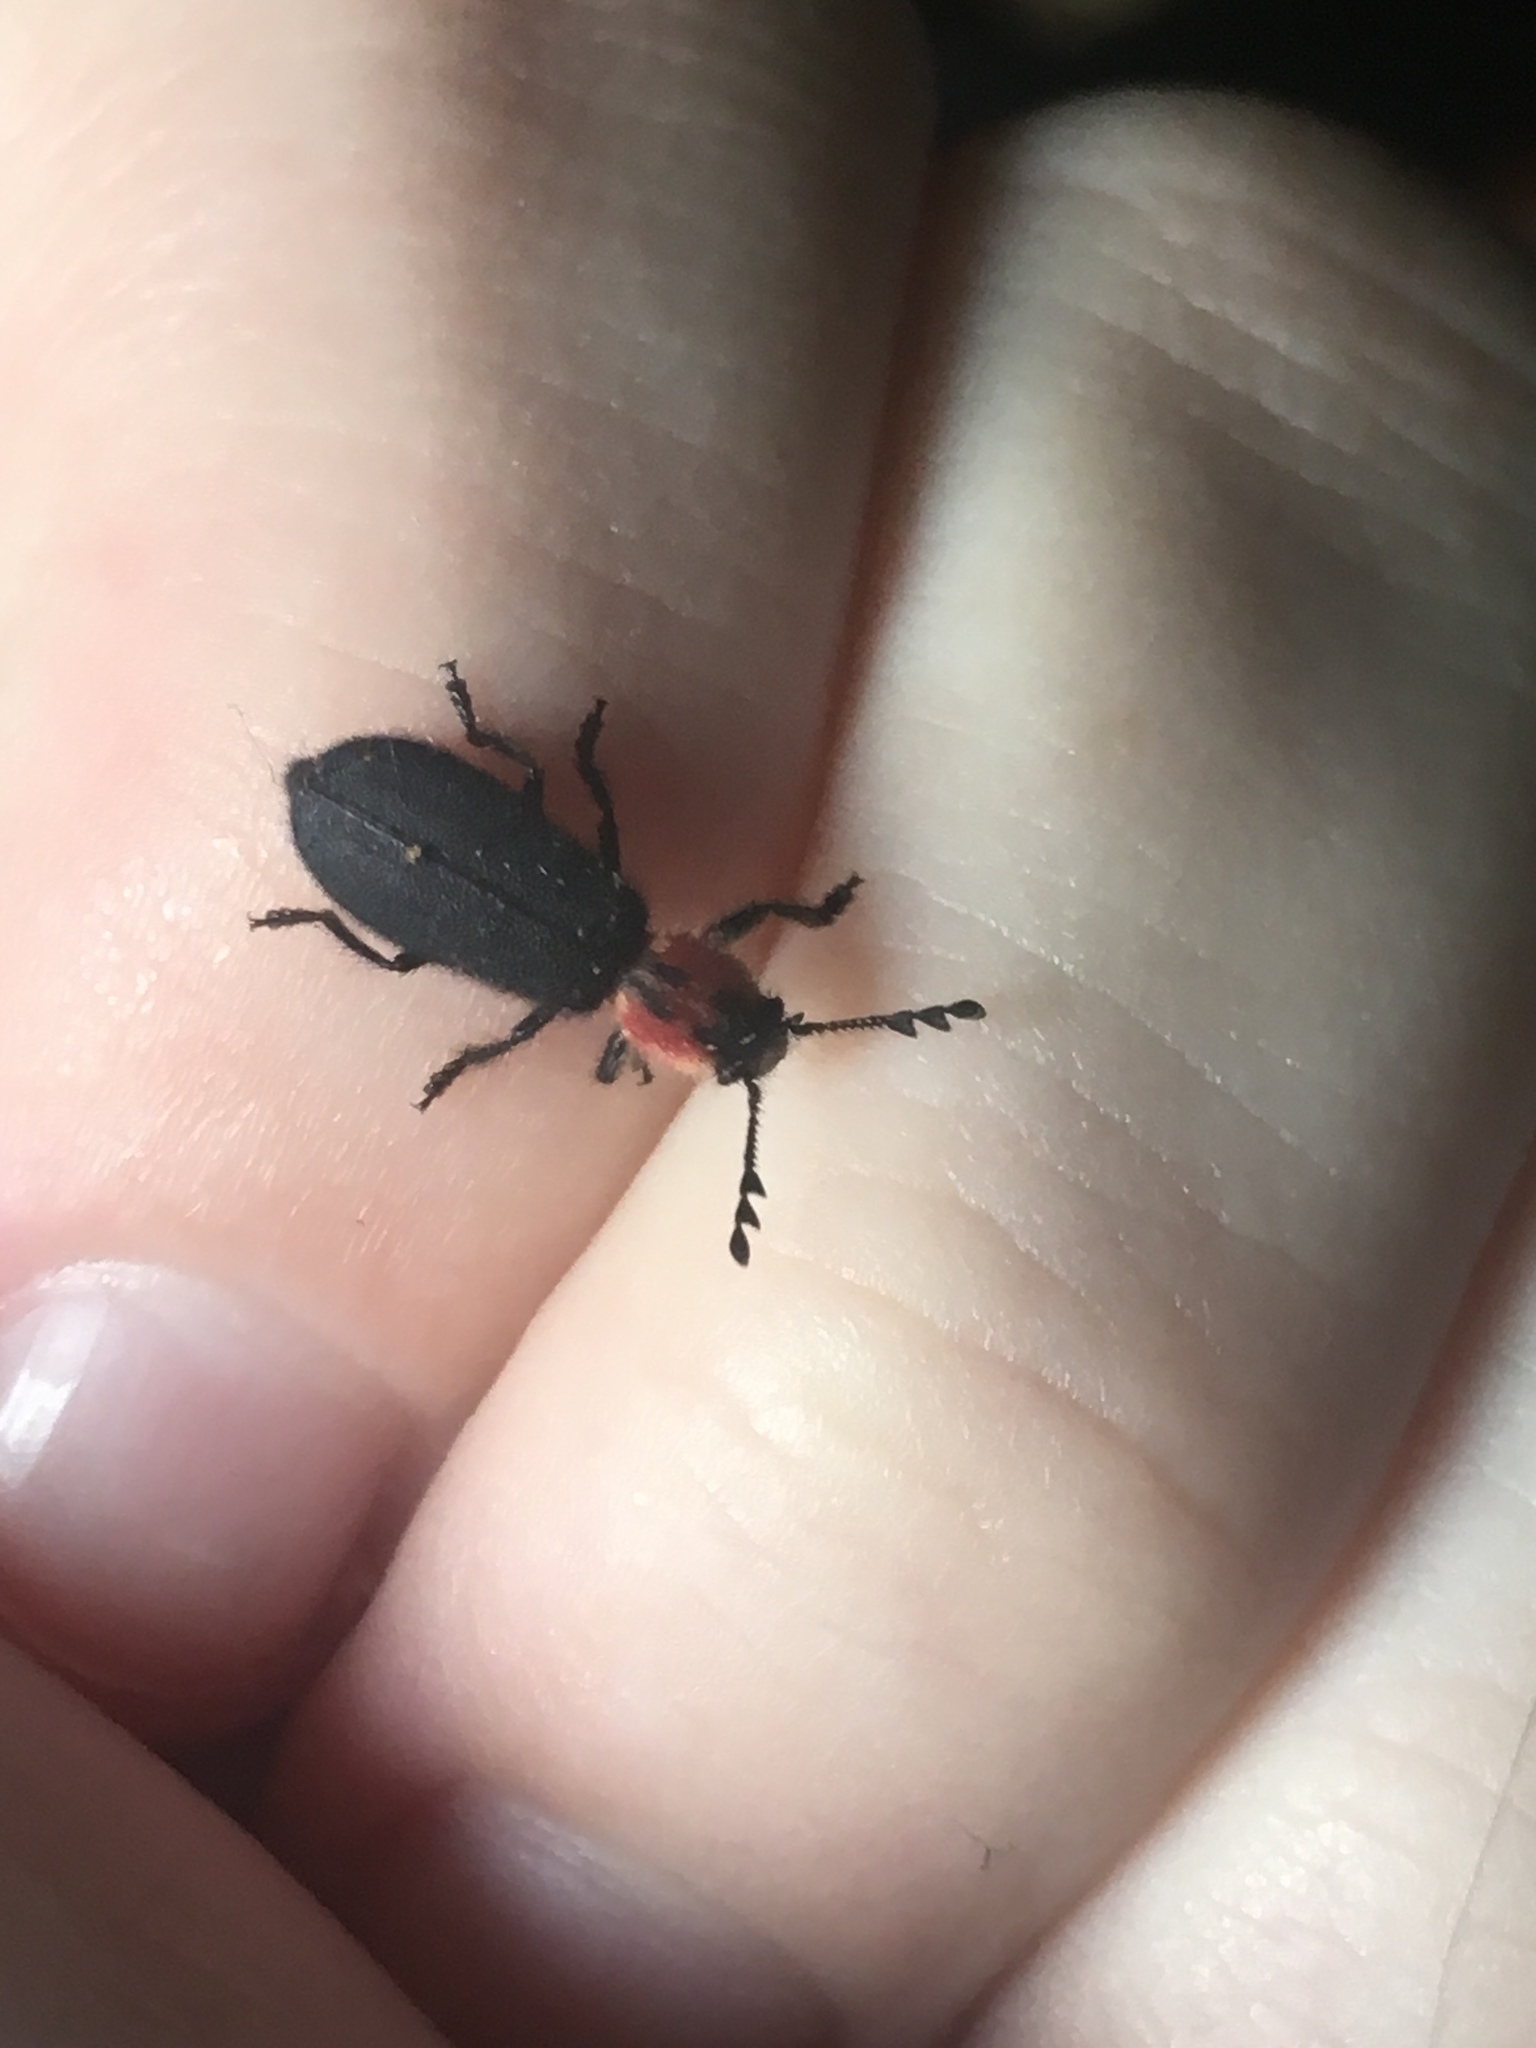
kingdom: Animalia
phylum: Arthropoda
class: Insecta
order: Coleoptera
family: Cleridae
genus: Chariessa
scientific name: Chariessa pilosa
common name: Pilose checkered beetle
